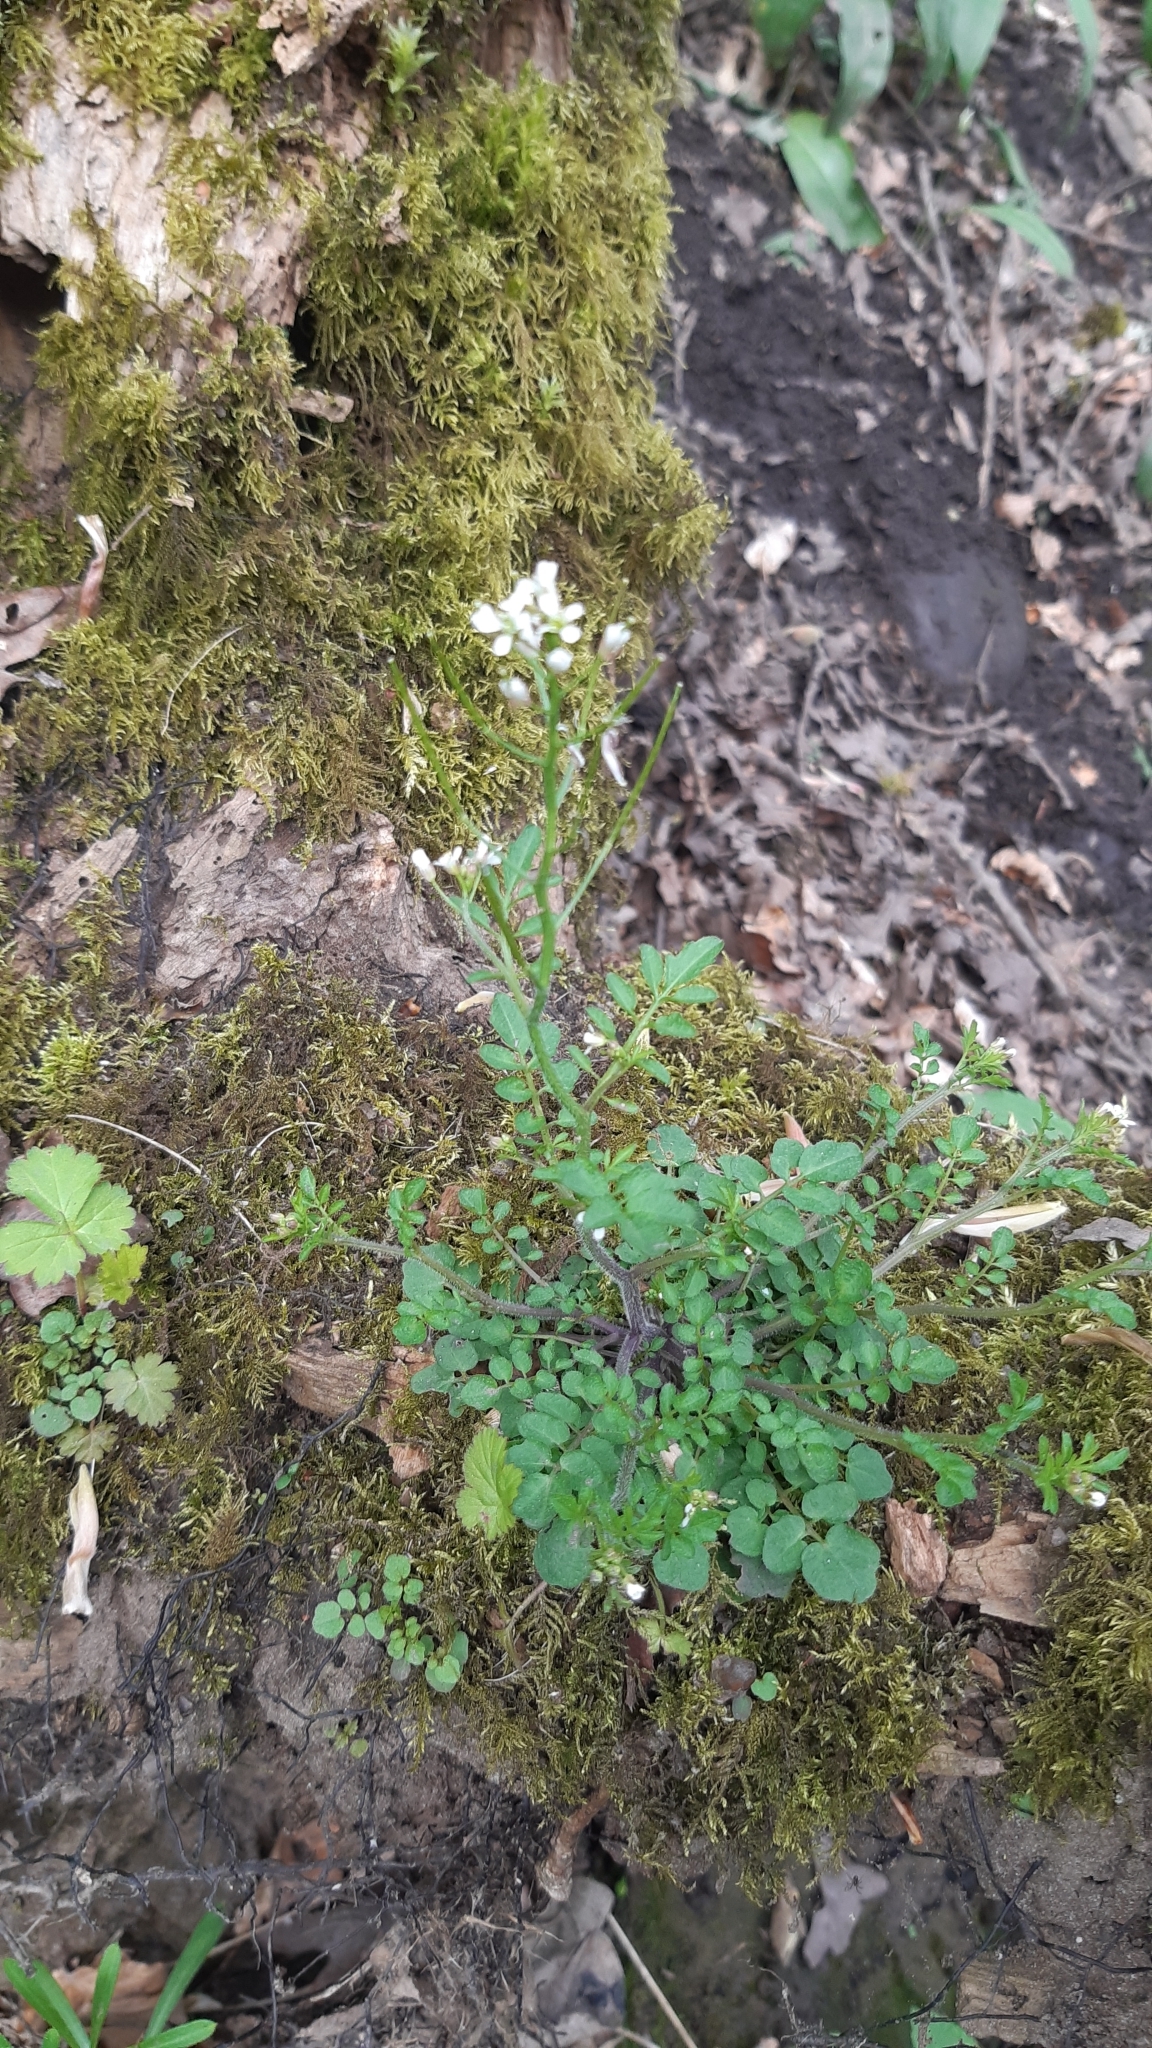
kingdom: Plantae
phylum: Tracheophyta
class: Magnoliopsida
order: Brassicales
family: Brassicaceae
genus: Cardamine
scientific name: Cardamine flexuosa
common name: Woodland bittercress
